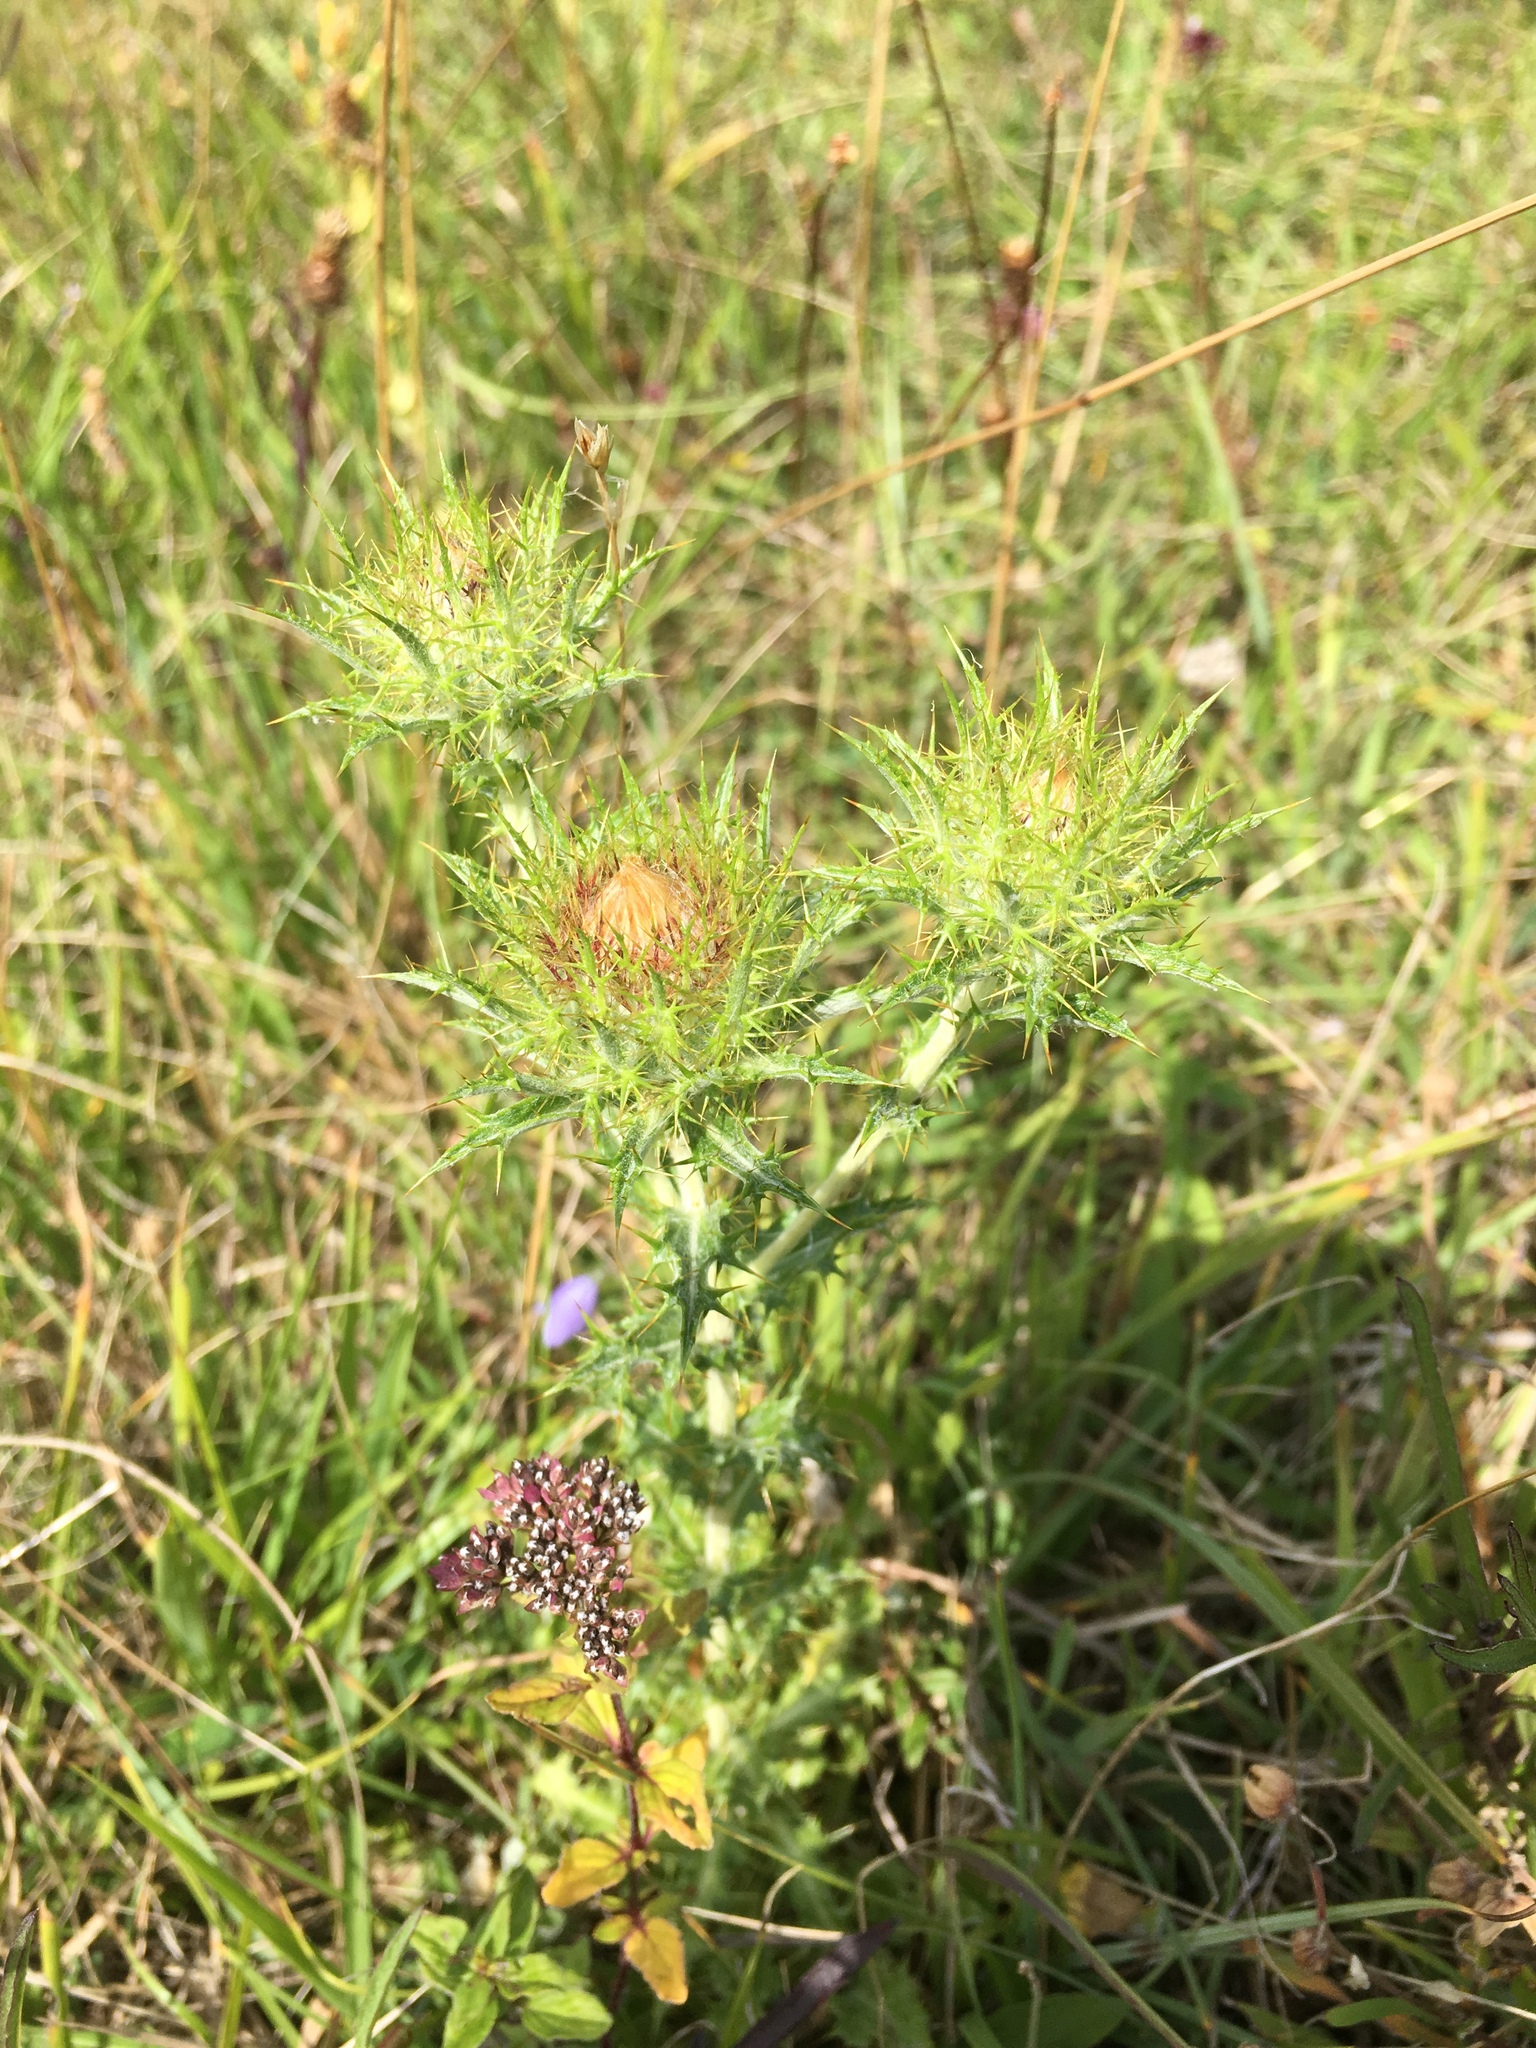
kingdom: Plantae
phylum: Tracheophyta
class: Magnoliopsida
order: Asterales
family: Asteraceae
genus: Carlina
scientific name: Carlina vulgaris
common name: Carline thistle
